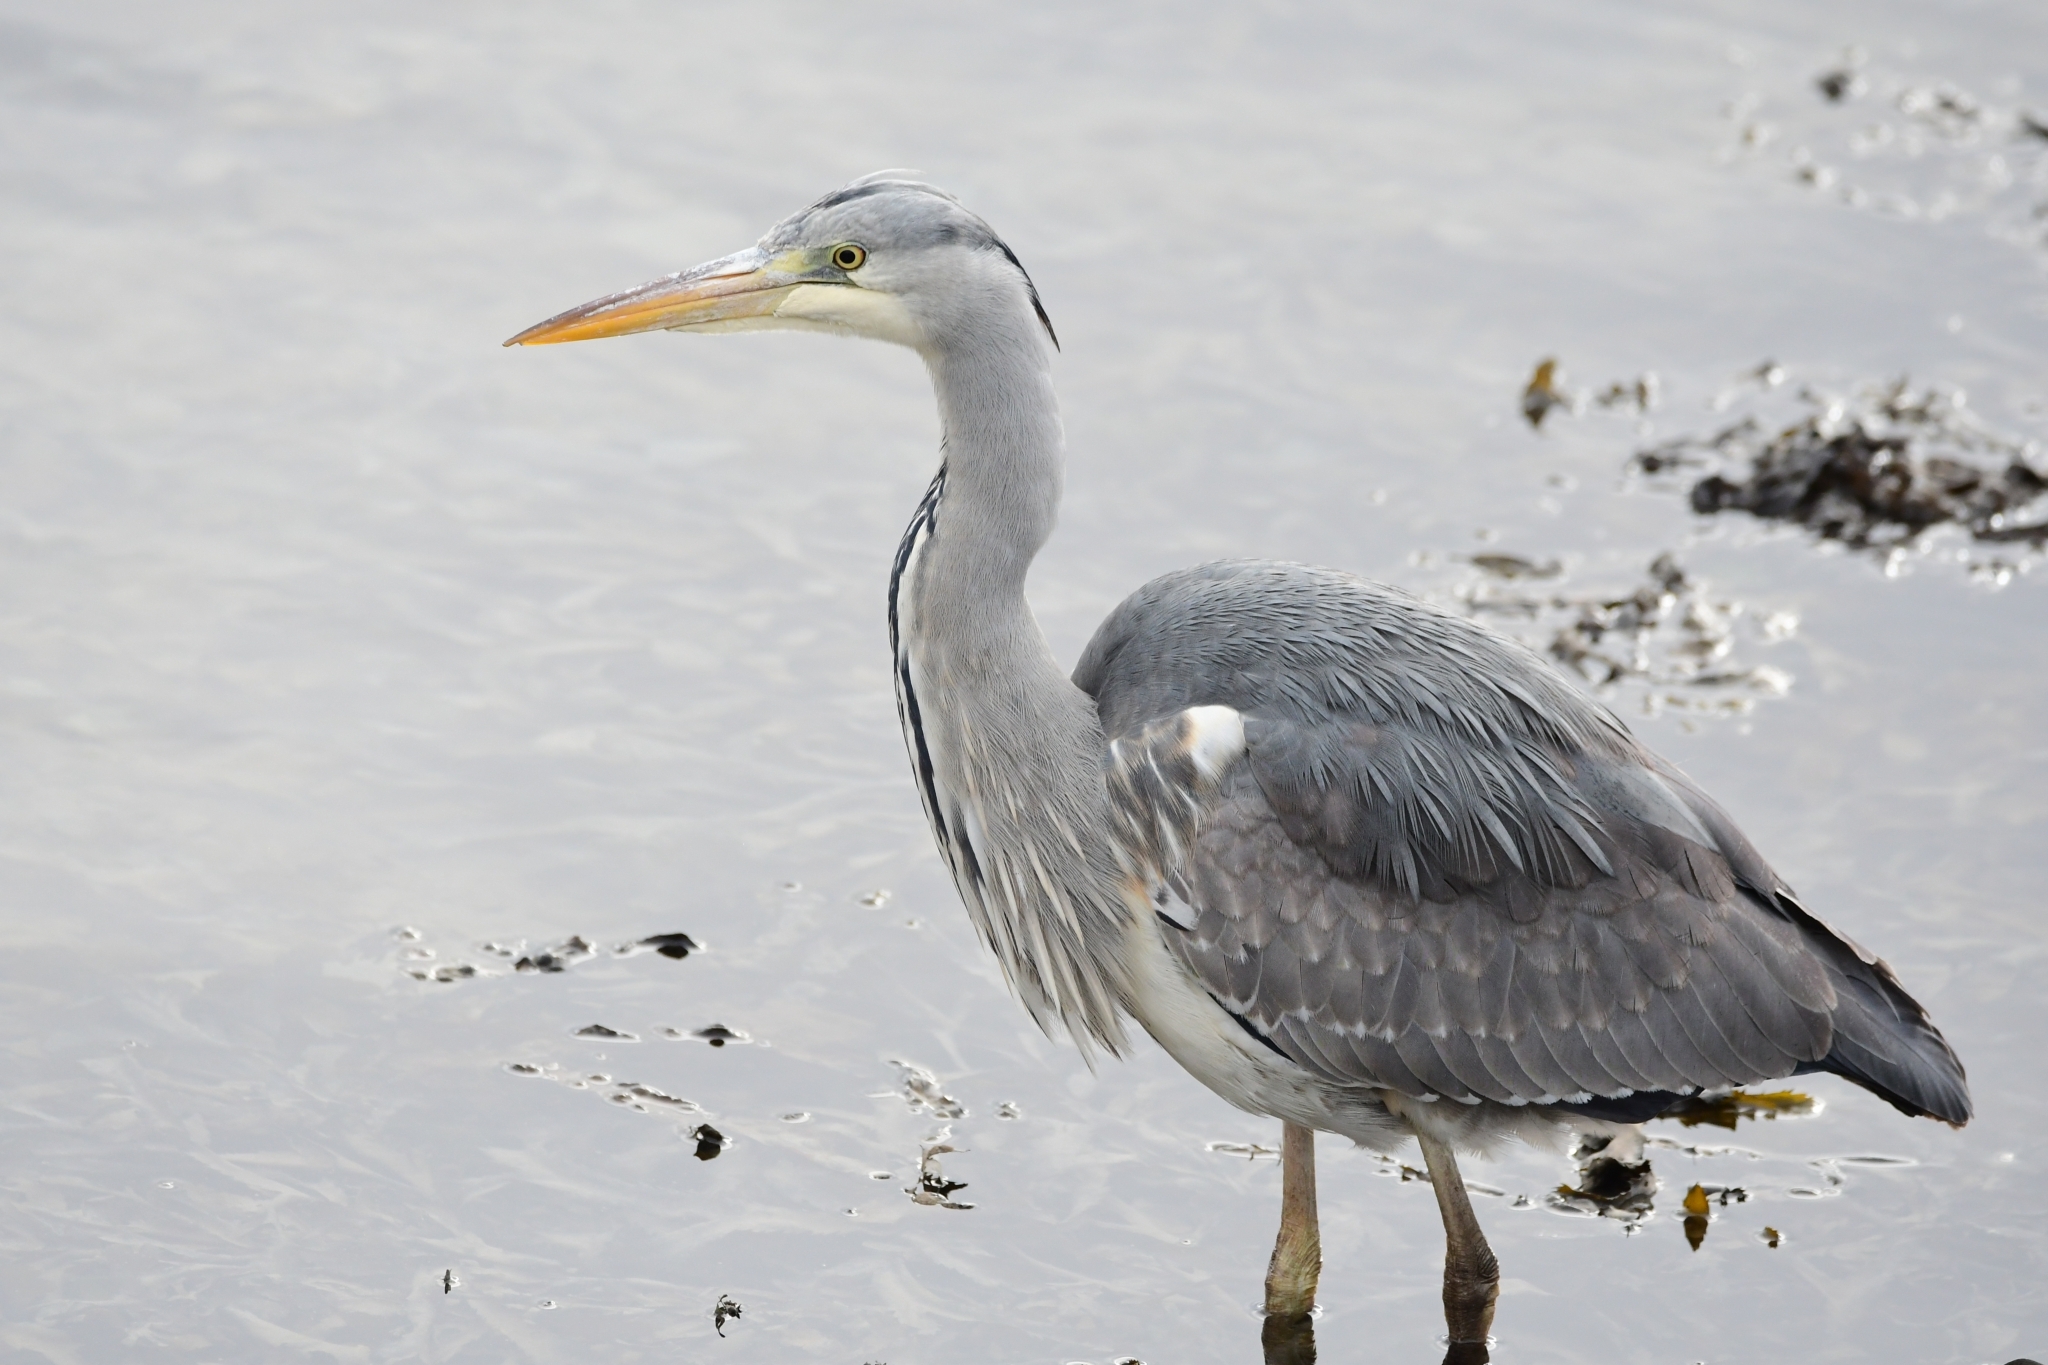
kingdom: Animalia
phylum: Chordata
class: Aves
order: Pelecaniformes
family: Ardeidae
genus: Ardea
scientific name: Ardea cinerea
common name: Grey heron
